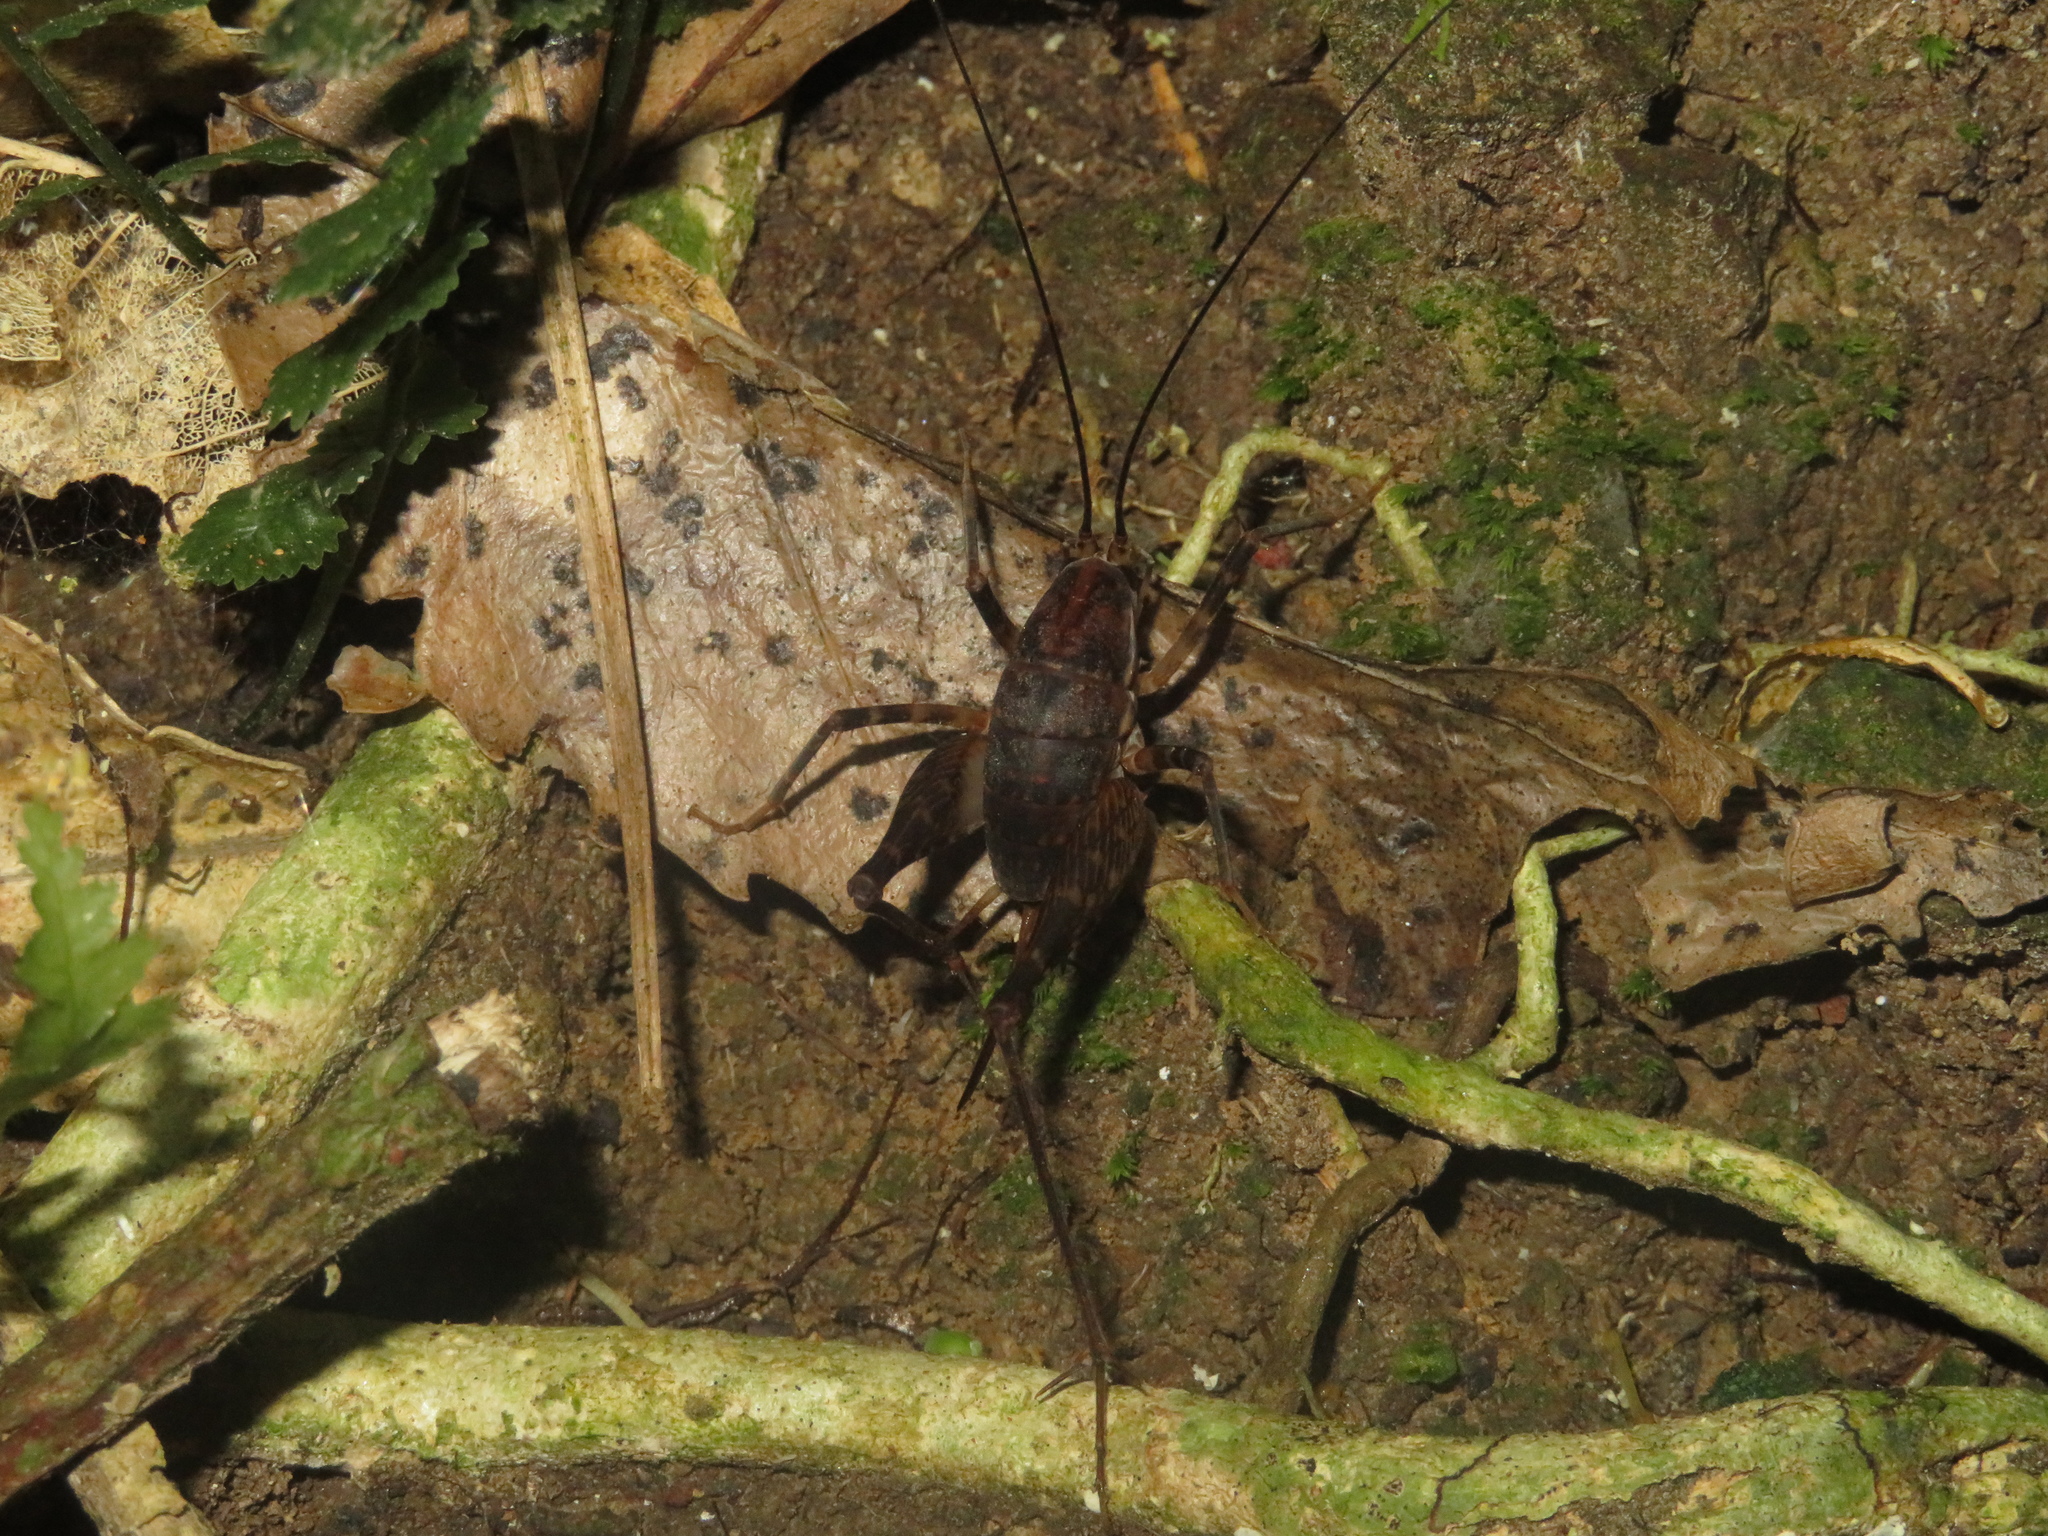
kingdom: Animalia
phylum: Arthropoda
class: Insecta
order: Orthoptera
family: Rhaphidophoridae
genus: Miotopus
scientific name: Miotopus diversus
